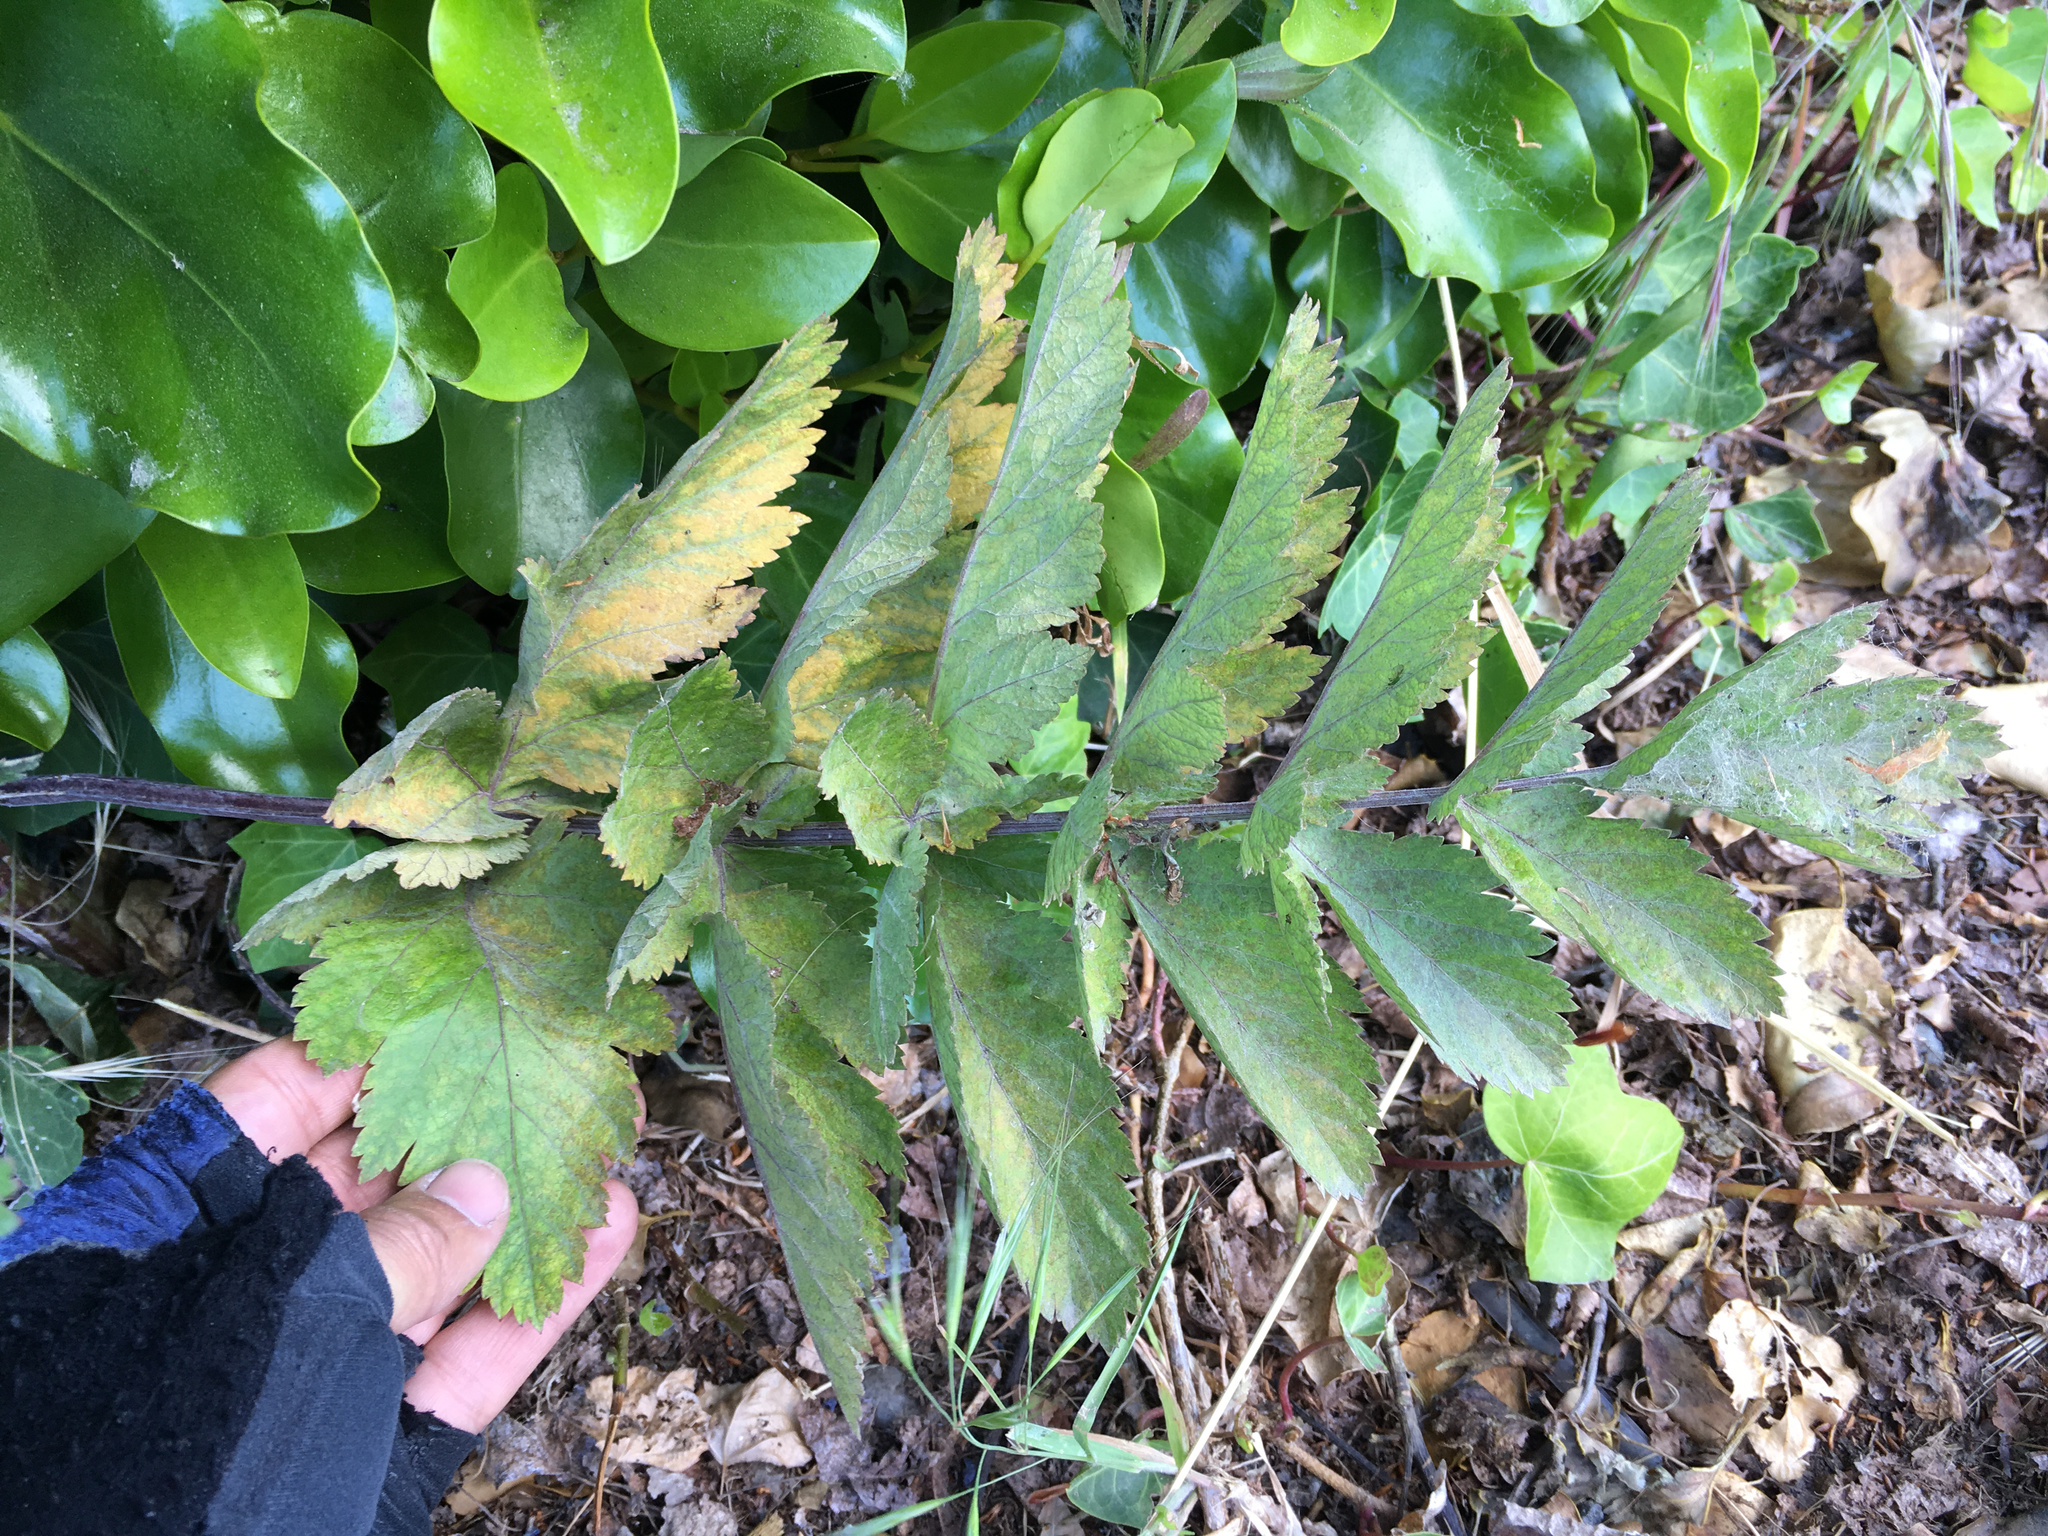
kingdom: Plantae
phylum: Tracheophyta
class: Magnoliopsida
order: Apiales
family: Apiaceae
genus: Daucus
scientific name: Daucus decipiens
